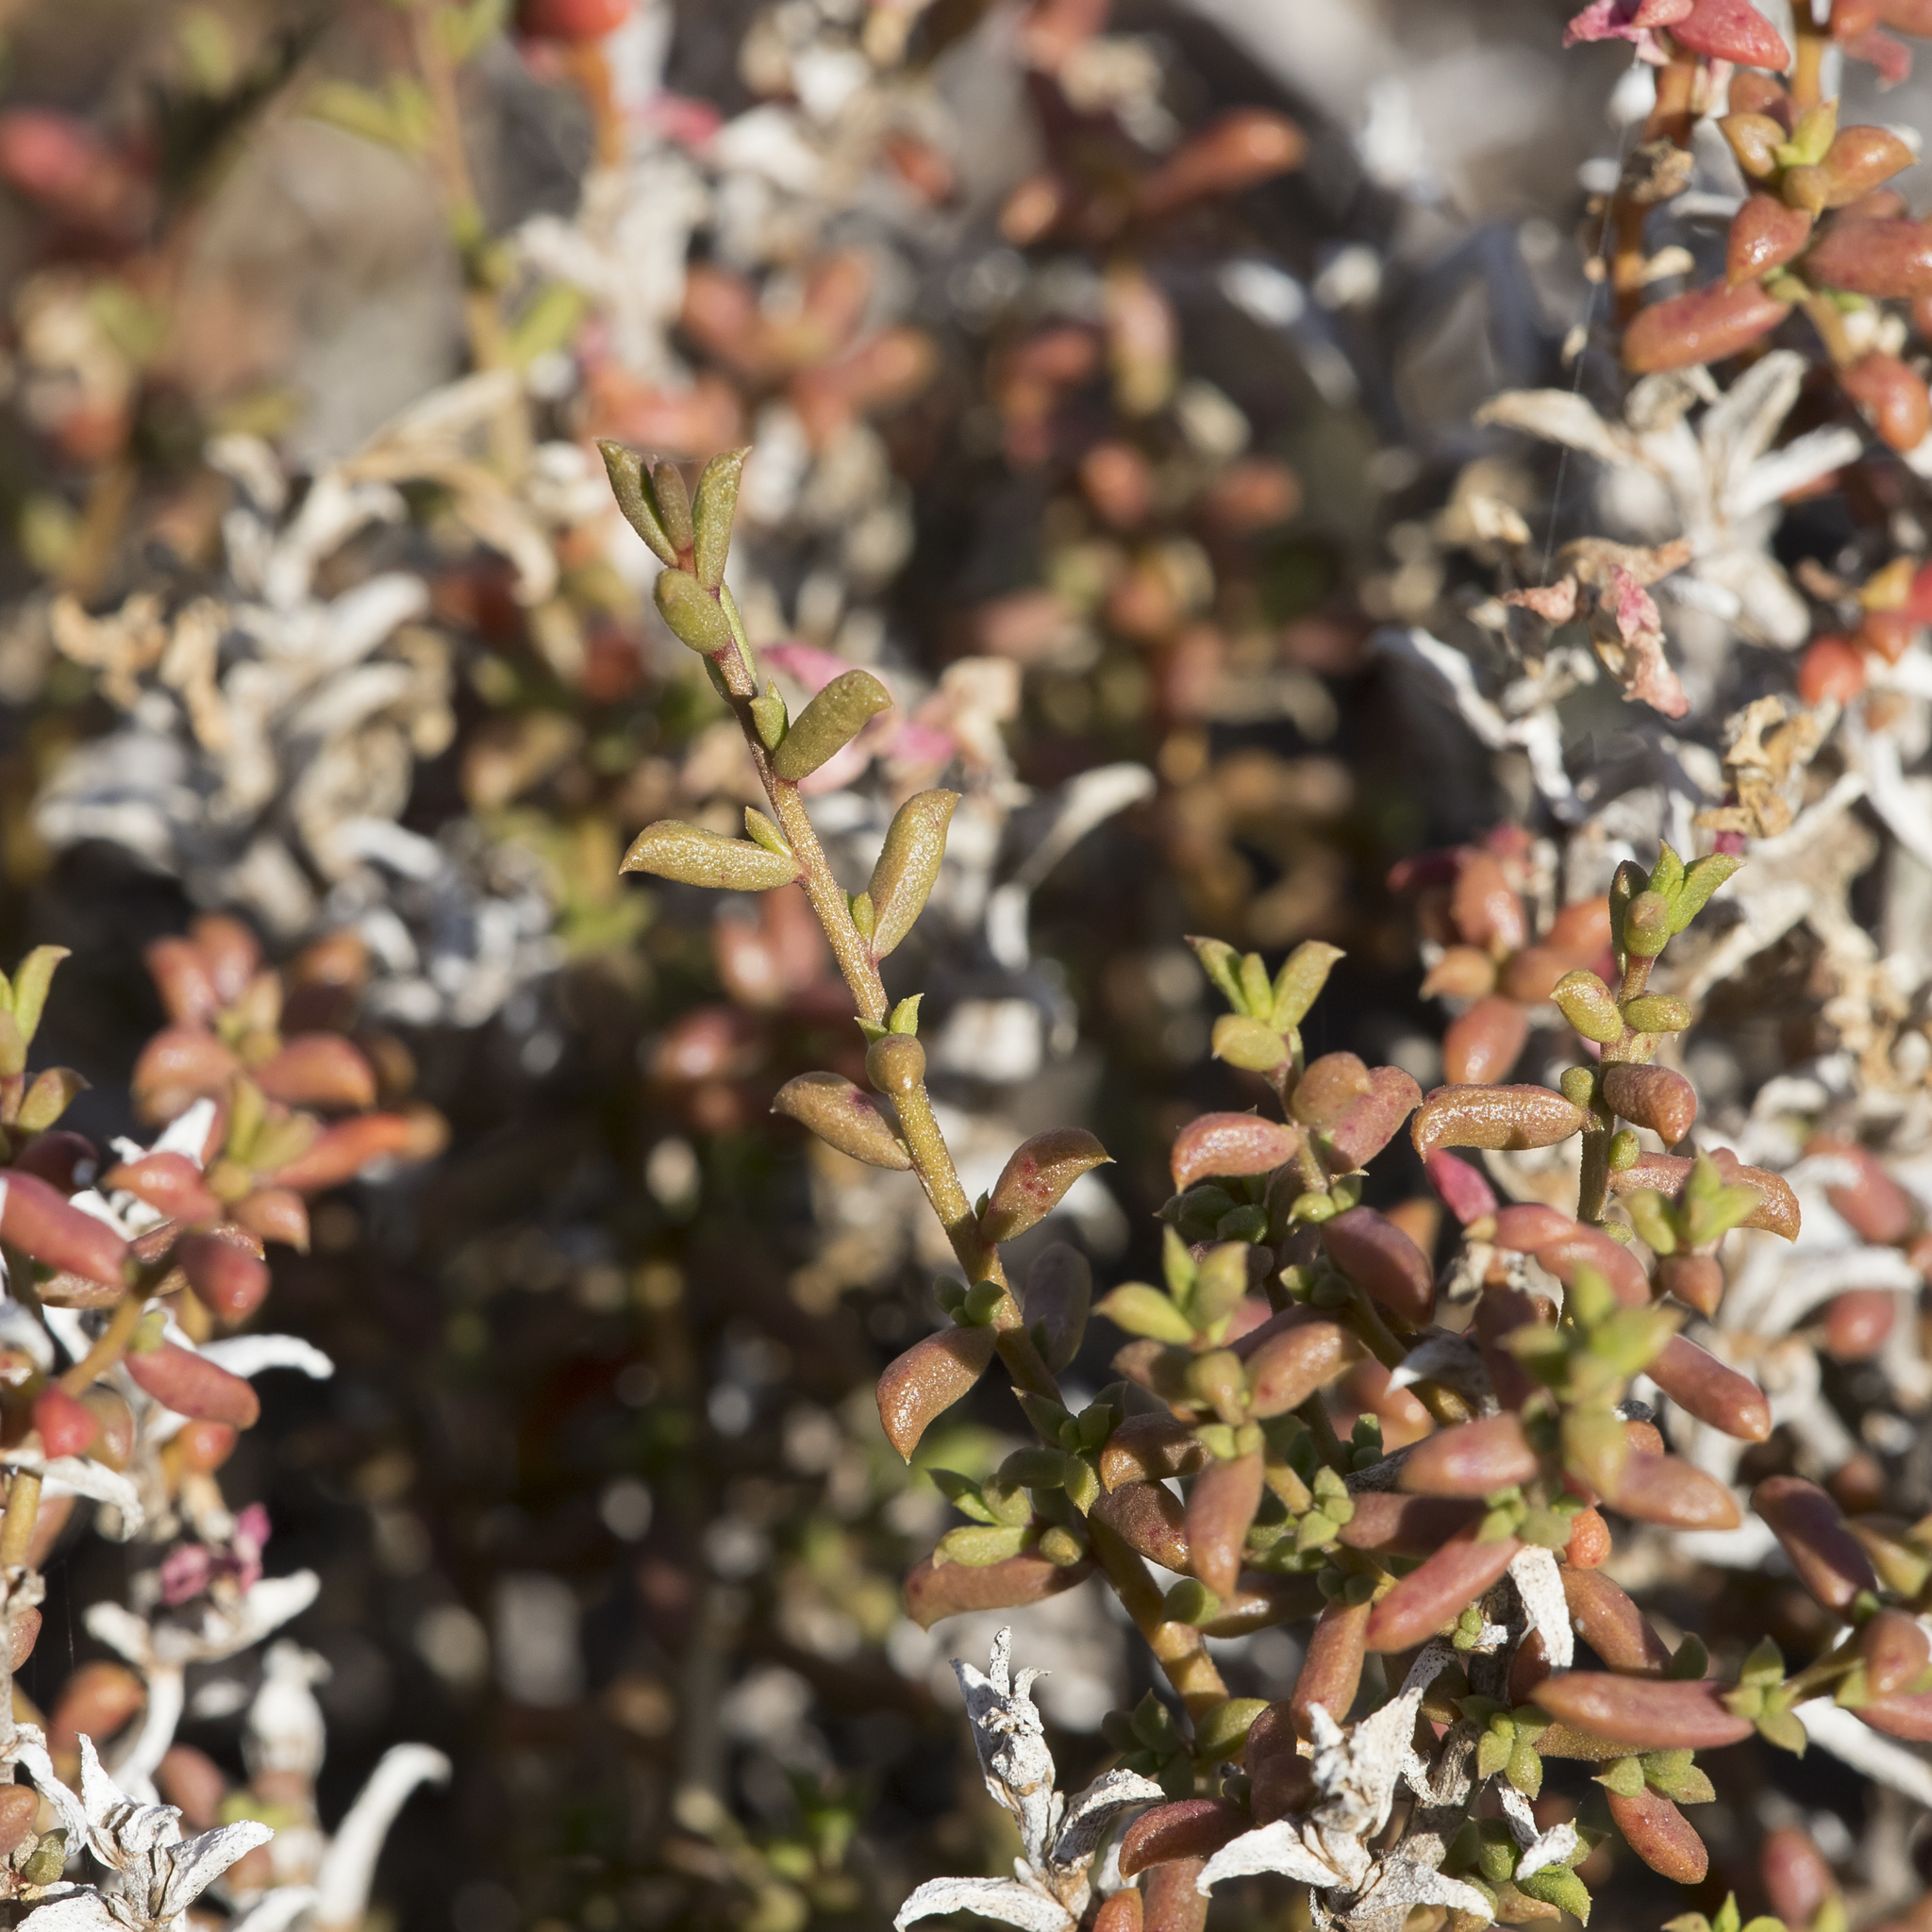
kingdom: Plantae
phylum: Tracheophyta
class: Magnoliopsida
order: Caryophyllales
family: Amaranthaceae
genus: Surreya
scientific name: Surreya diandra
